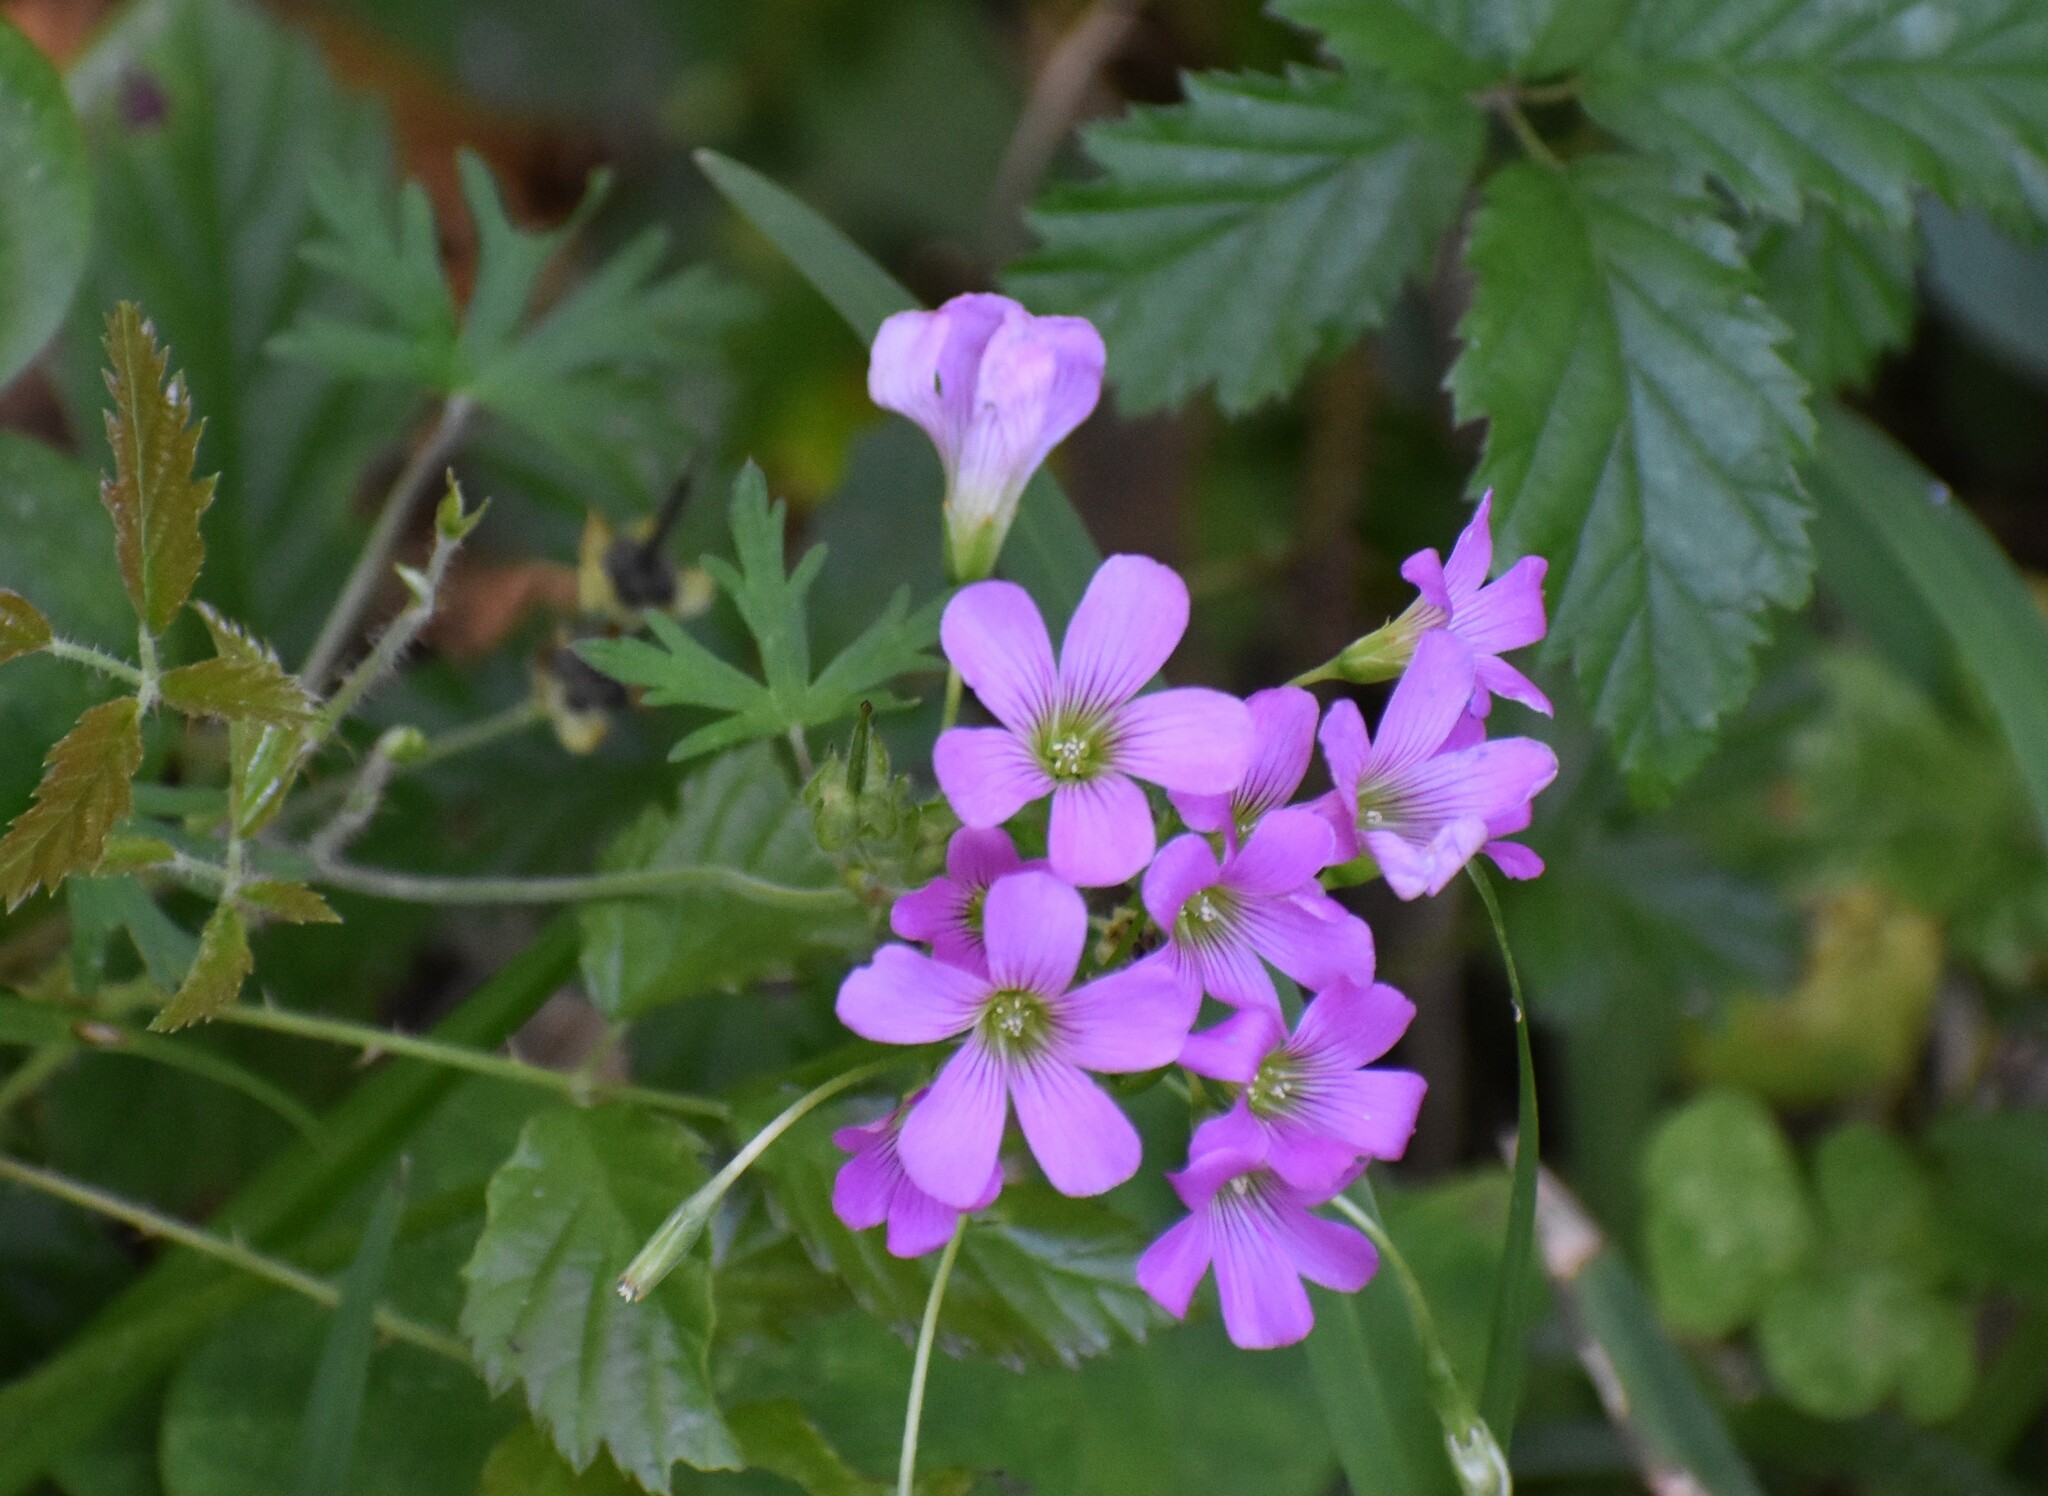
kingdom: Plantae
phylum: Tracheophyta
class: Magnoliopsida
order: Oxalidales
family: Oxalidaceae
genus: Oxalis
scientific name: Oxalis debilis
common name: Large-flowered pink-sorrel
